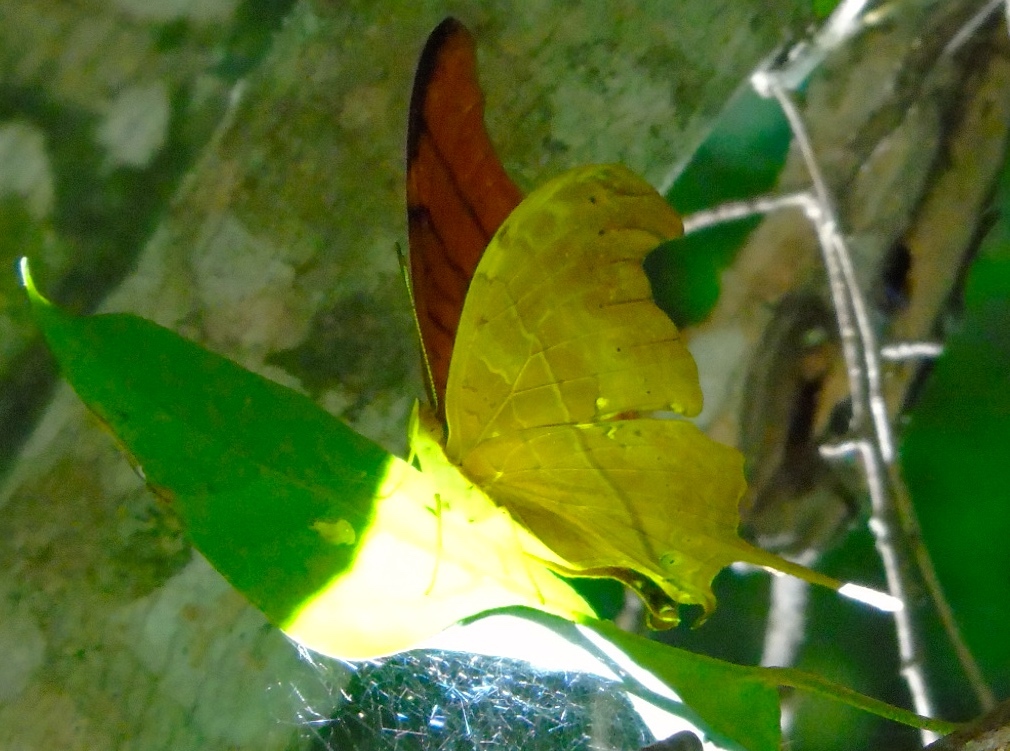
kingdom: Animalia
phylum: Arthropoda
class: Insecta
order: Lepidoptera
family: Nymphalidae
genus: Marpesia
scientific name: Marpesia petreus
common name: Red dagger wing
